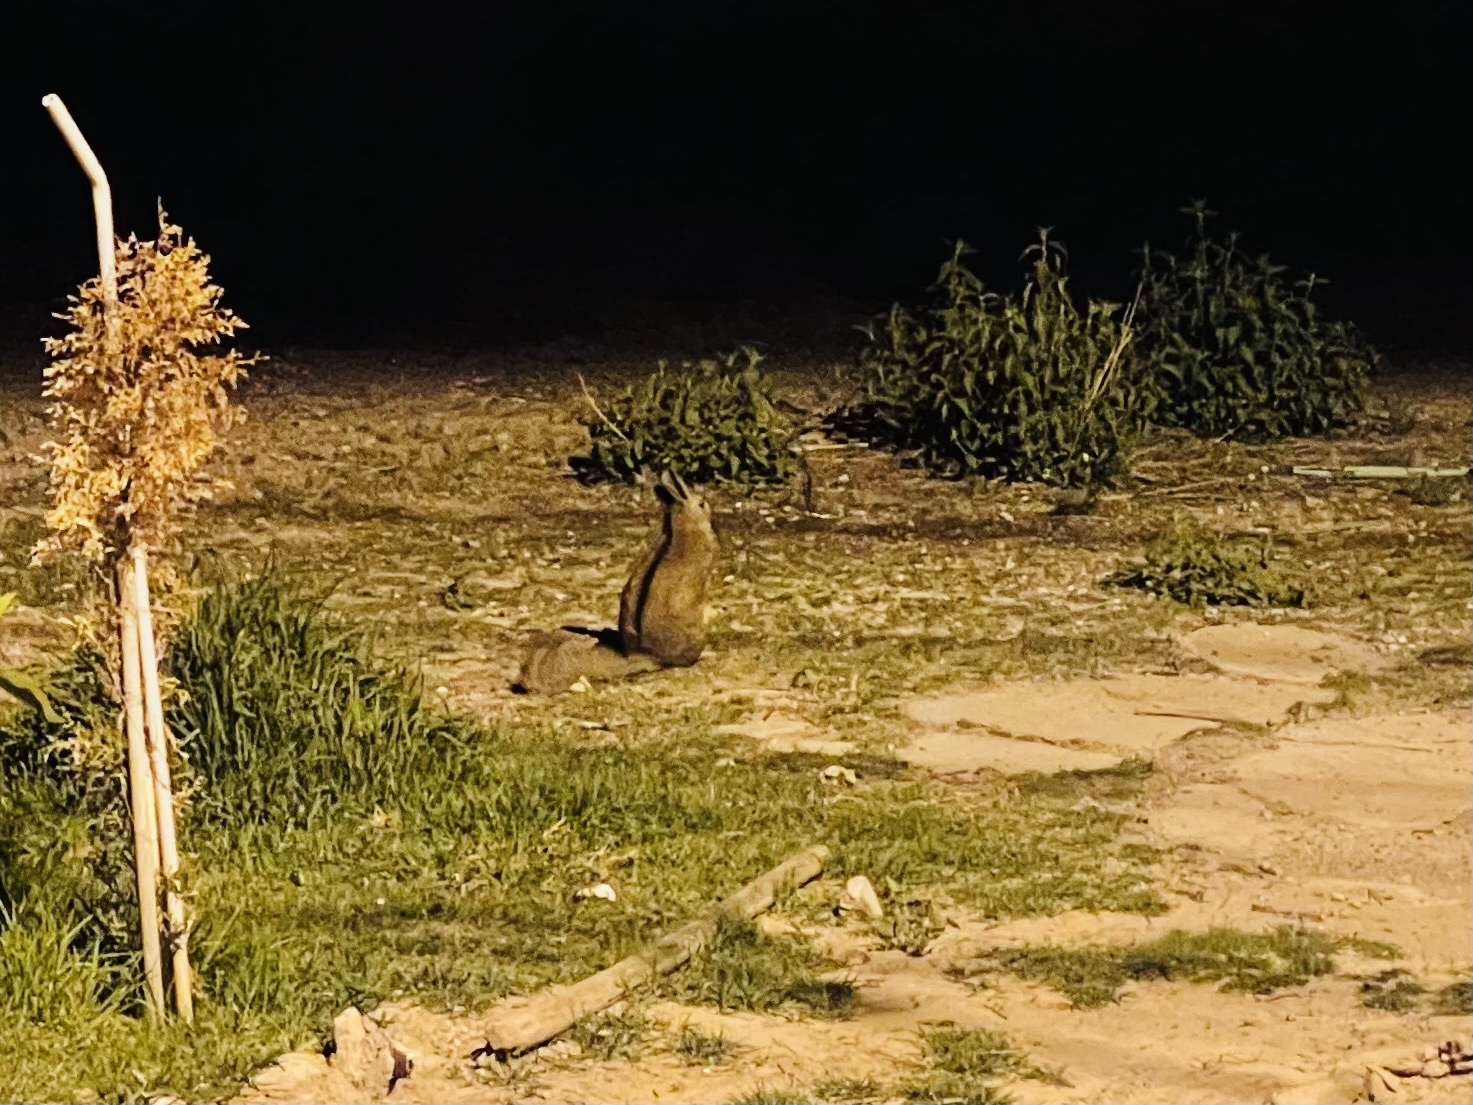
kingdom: Animalia
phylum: Chordata
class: Mammalia
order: Rodentia
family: Chinchillidae
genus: Lagidium
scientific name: Lagidium viscacia
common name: Southern viscacha
